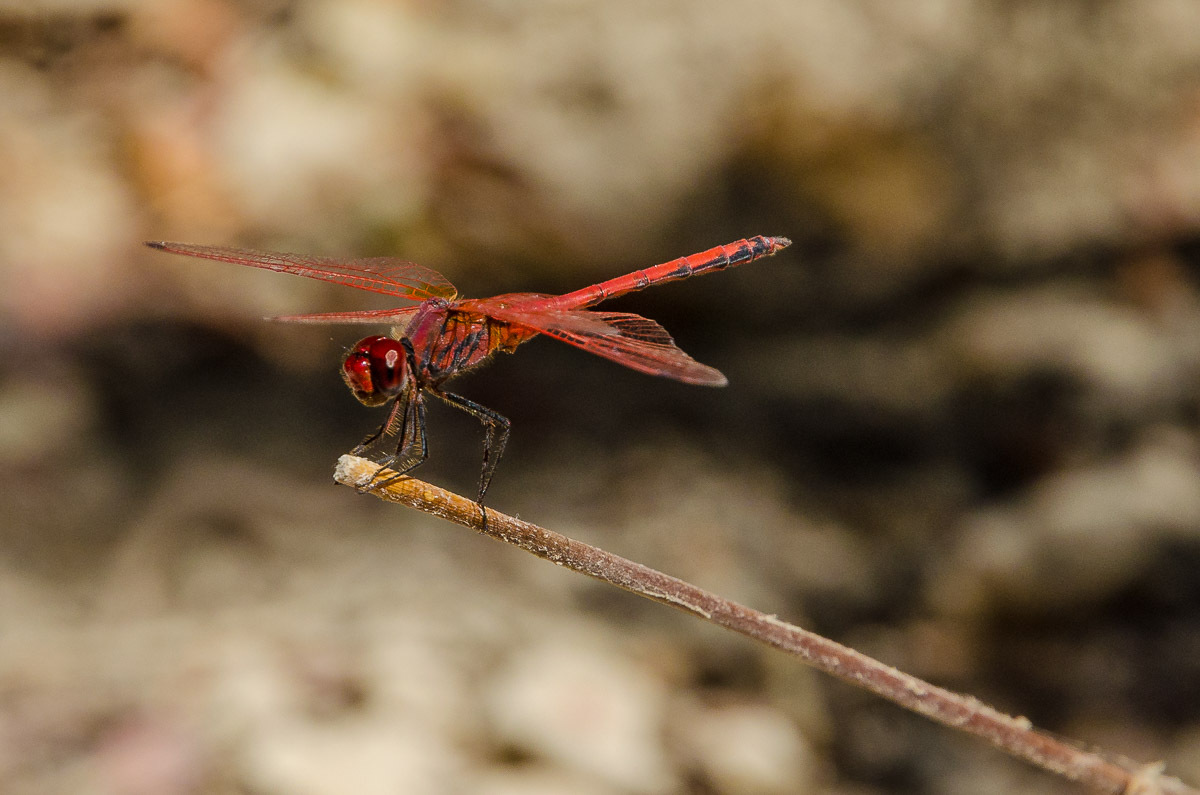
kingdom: Animalia
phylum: Arthropoda
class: Insecta
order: Odonata
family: Libellulidae
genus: Trithemis
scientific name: Trithemis arteriosa
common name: Red-veined dropwing
